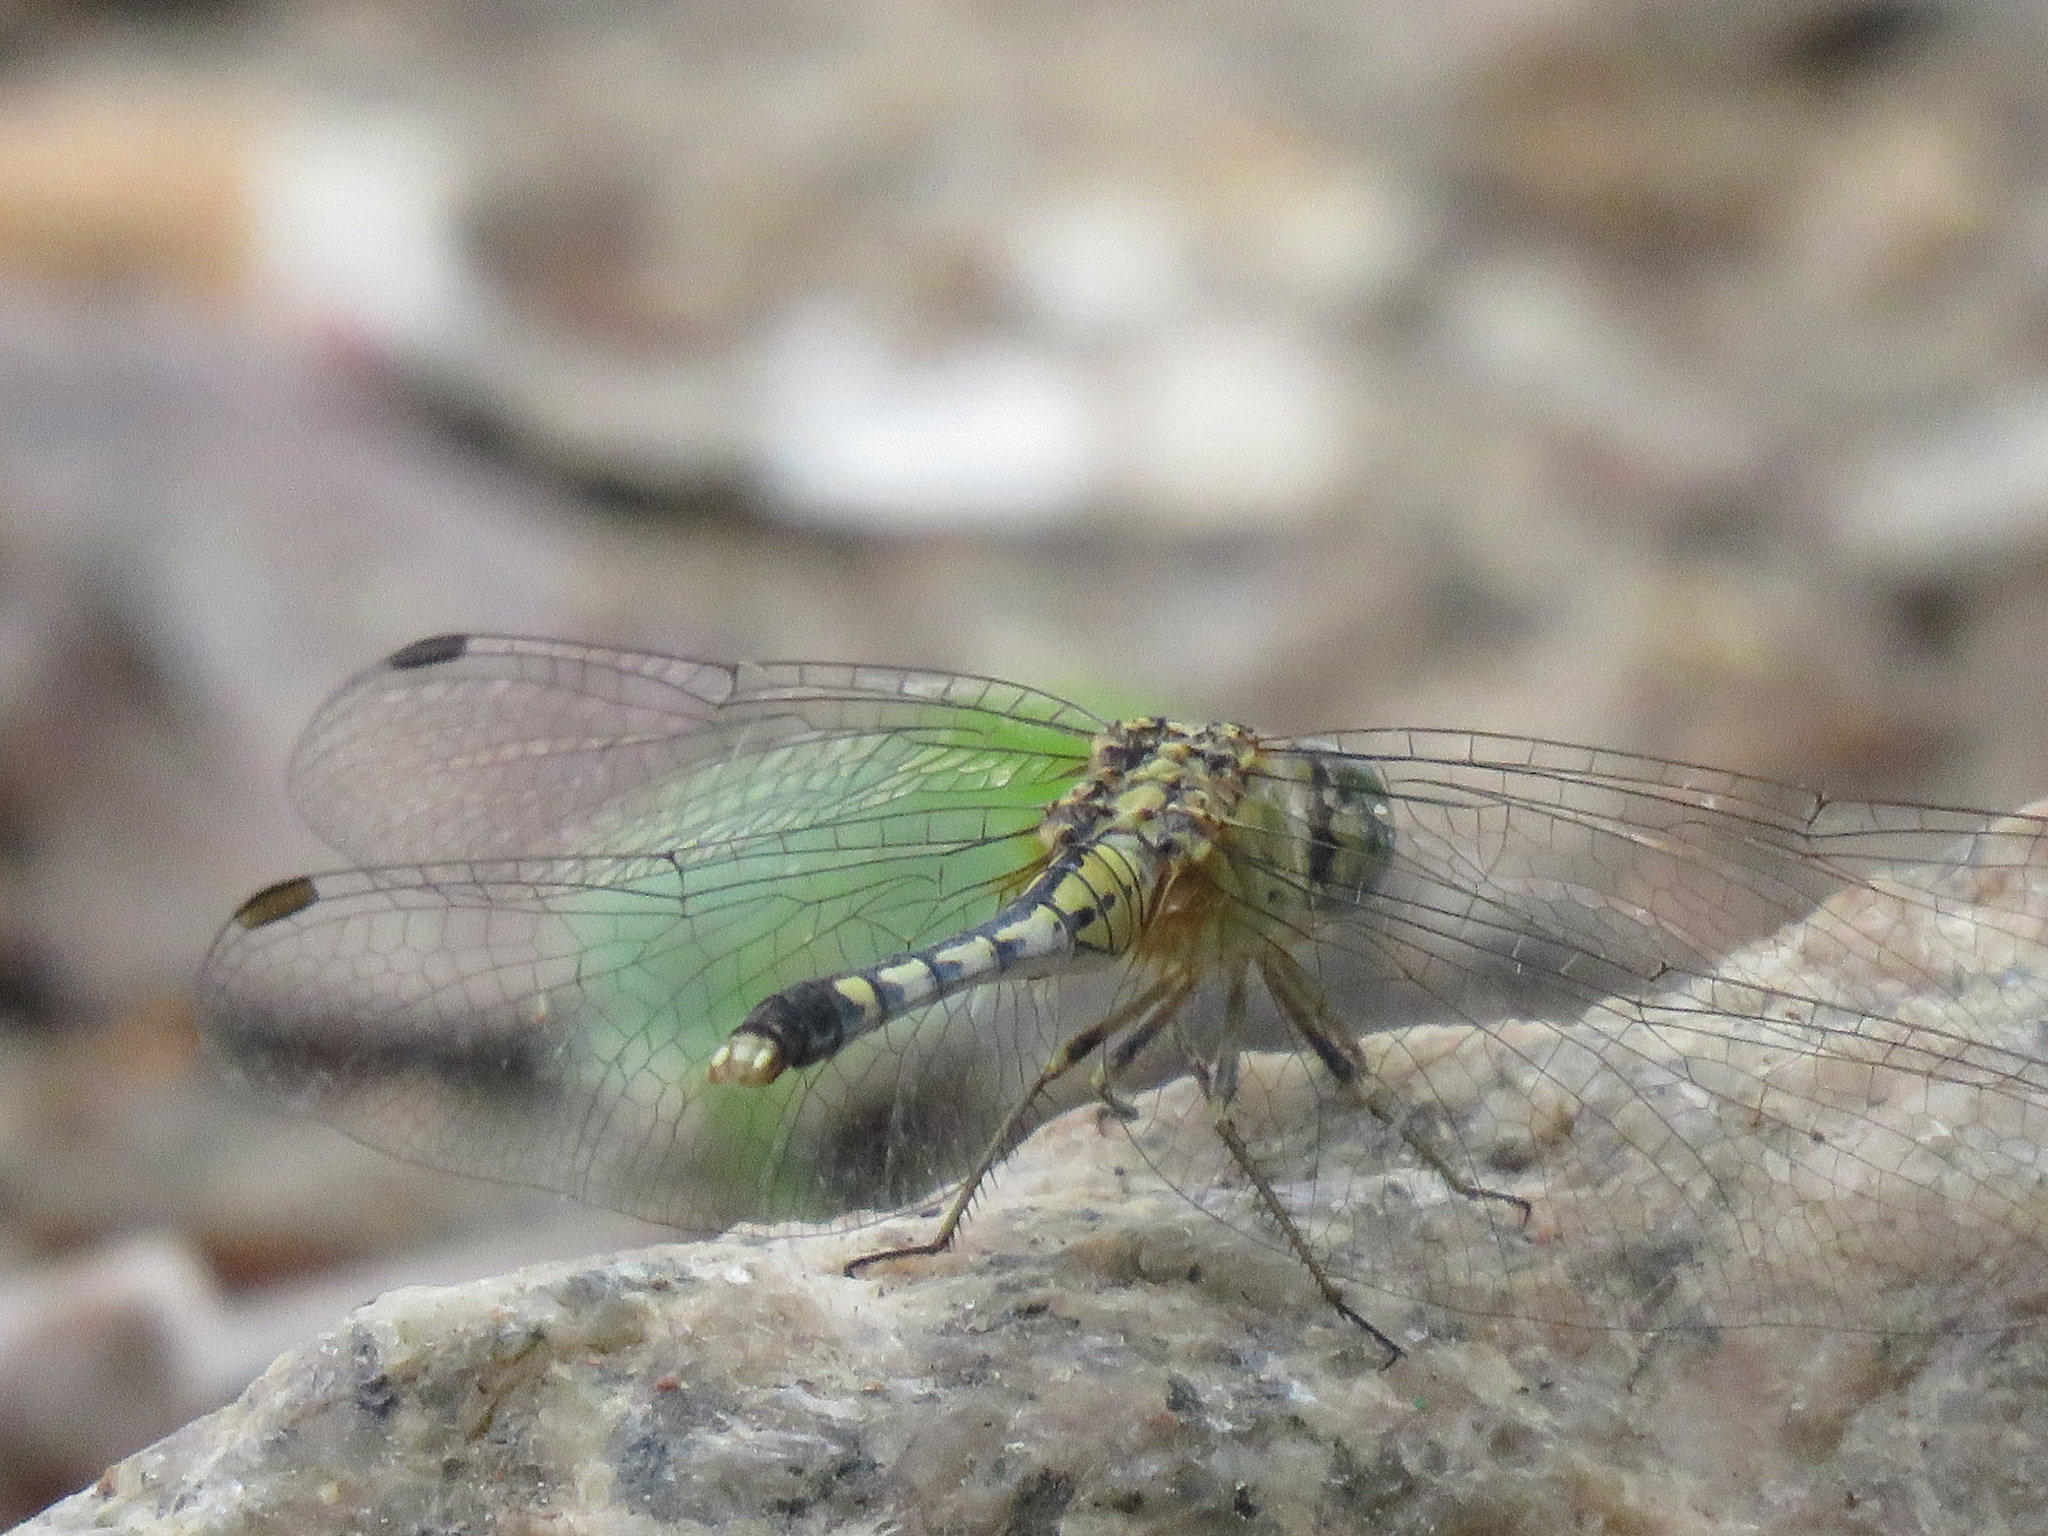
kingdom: Animalia
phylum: Arthropoda
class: Insecta
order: Odonata
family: Libellulidae
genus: Diplacodes
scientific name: Diplacodes trivialis
